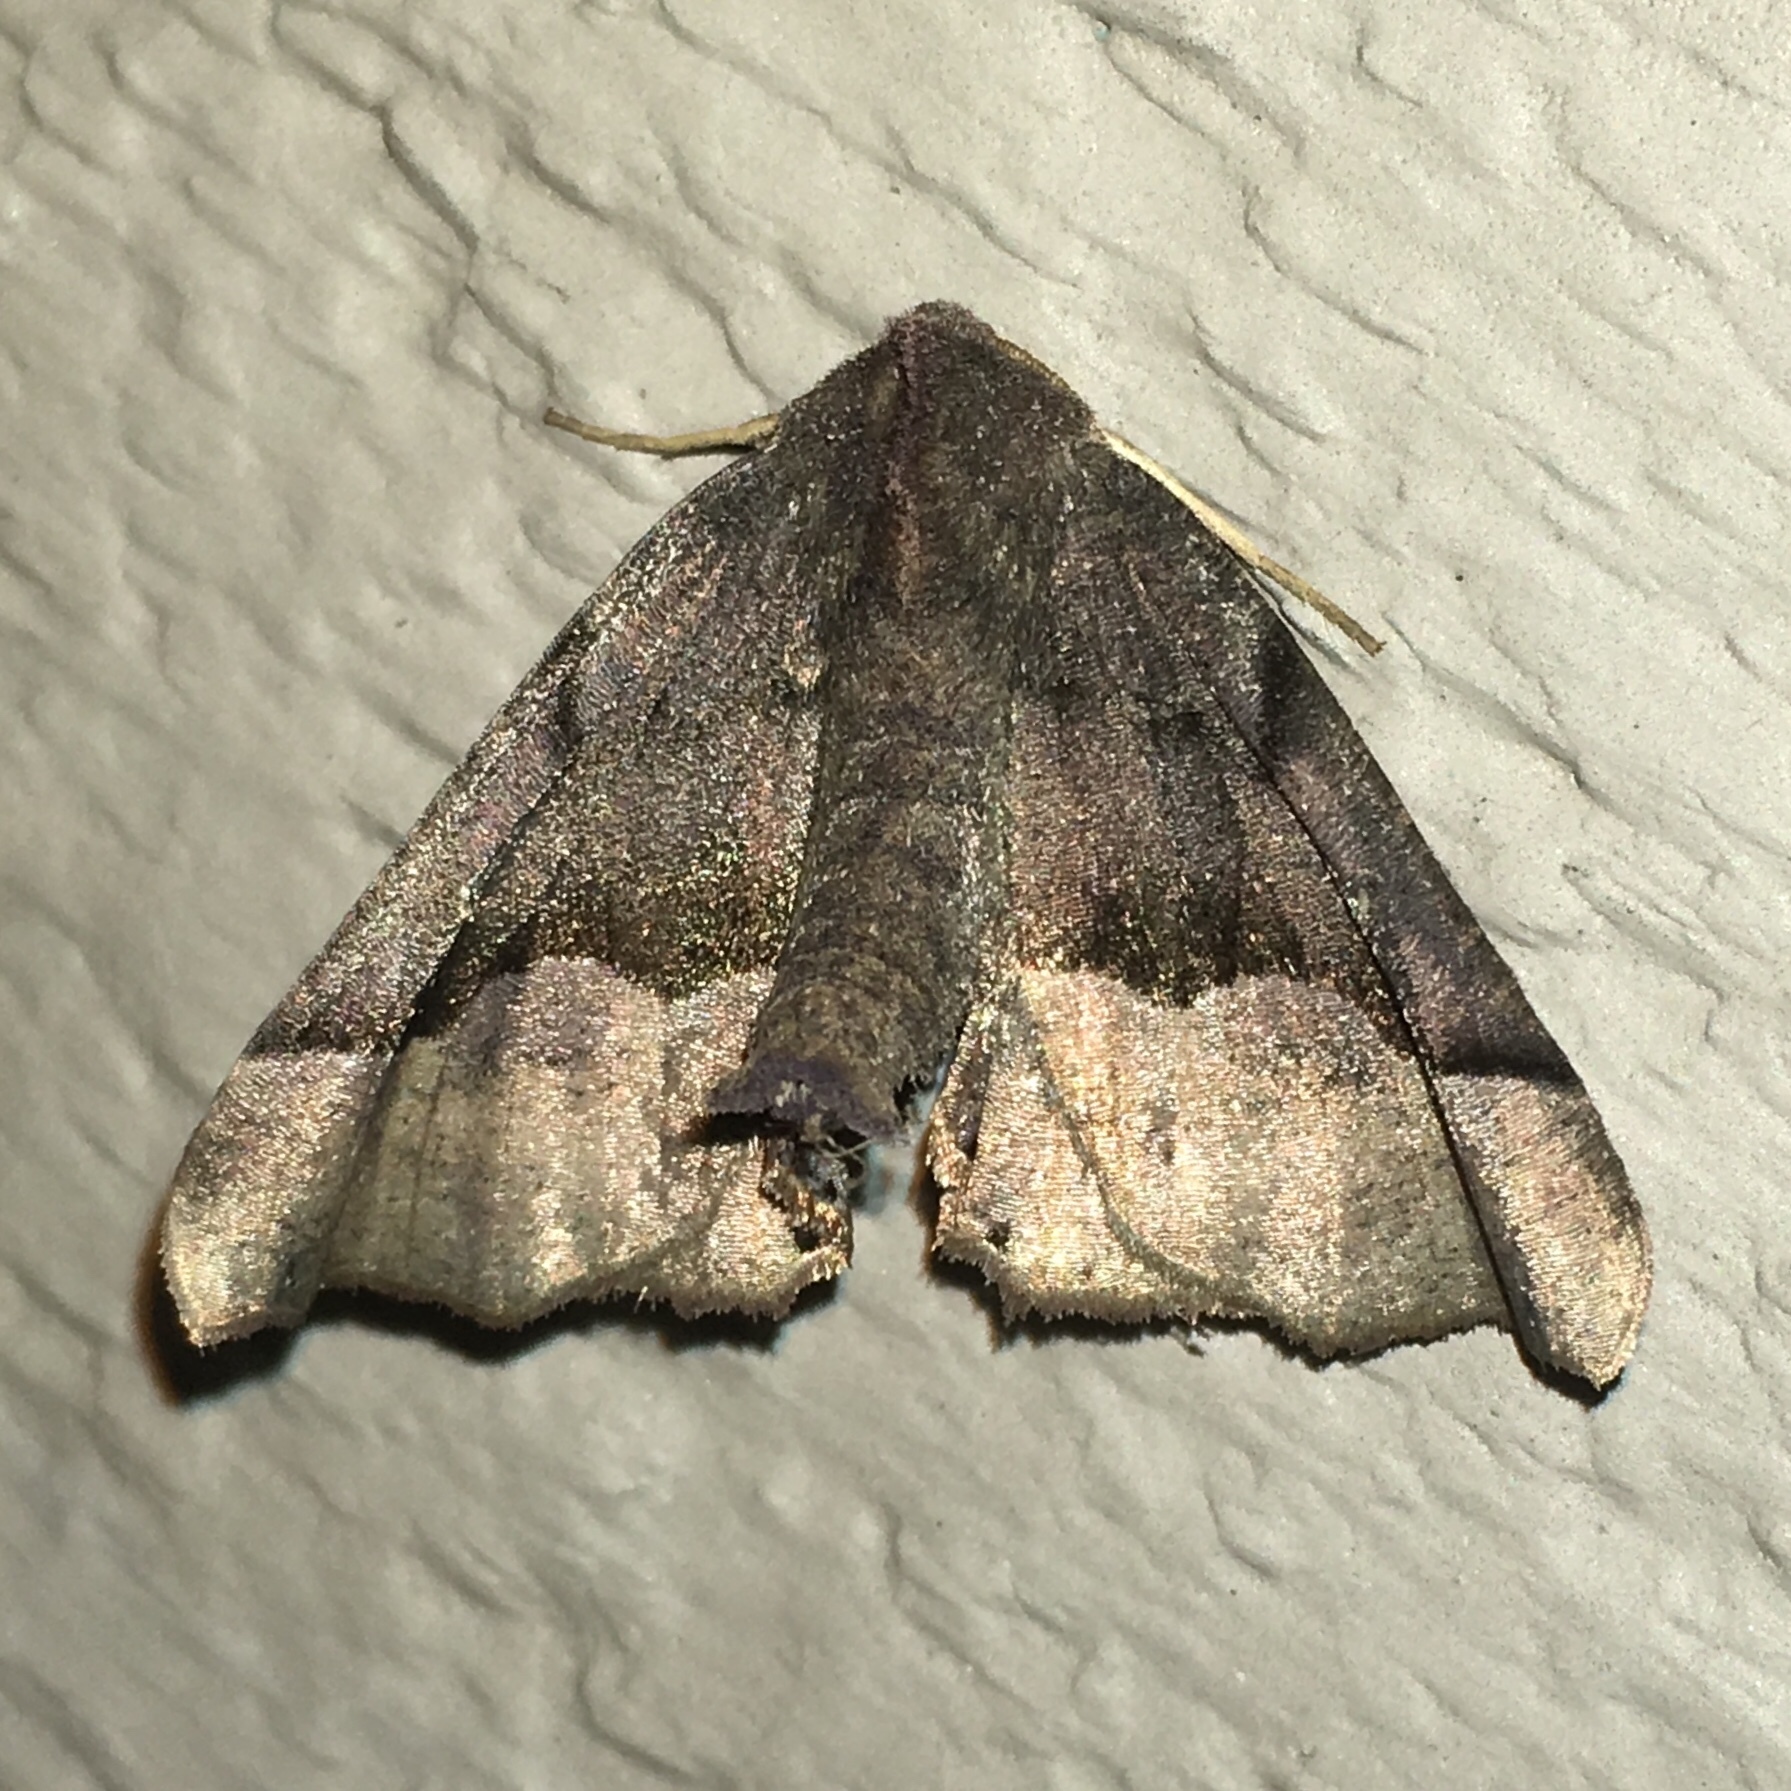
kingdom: Animalia
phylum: Arthropoda
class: Insecta
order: Lepidoptera
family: Geometridae
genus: Pero
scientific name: Pero honestaria
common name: Honest pero
